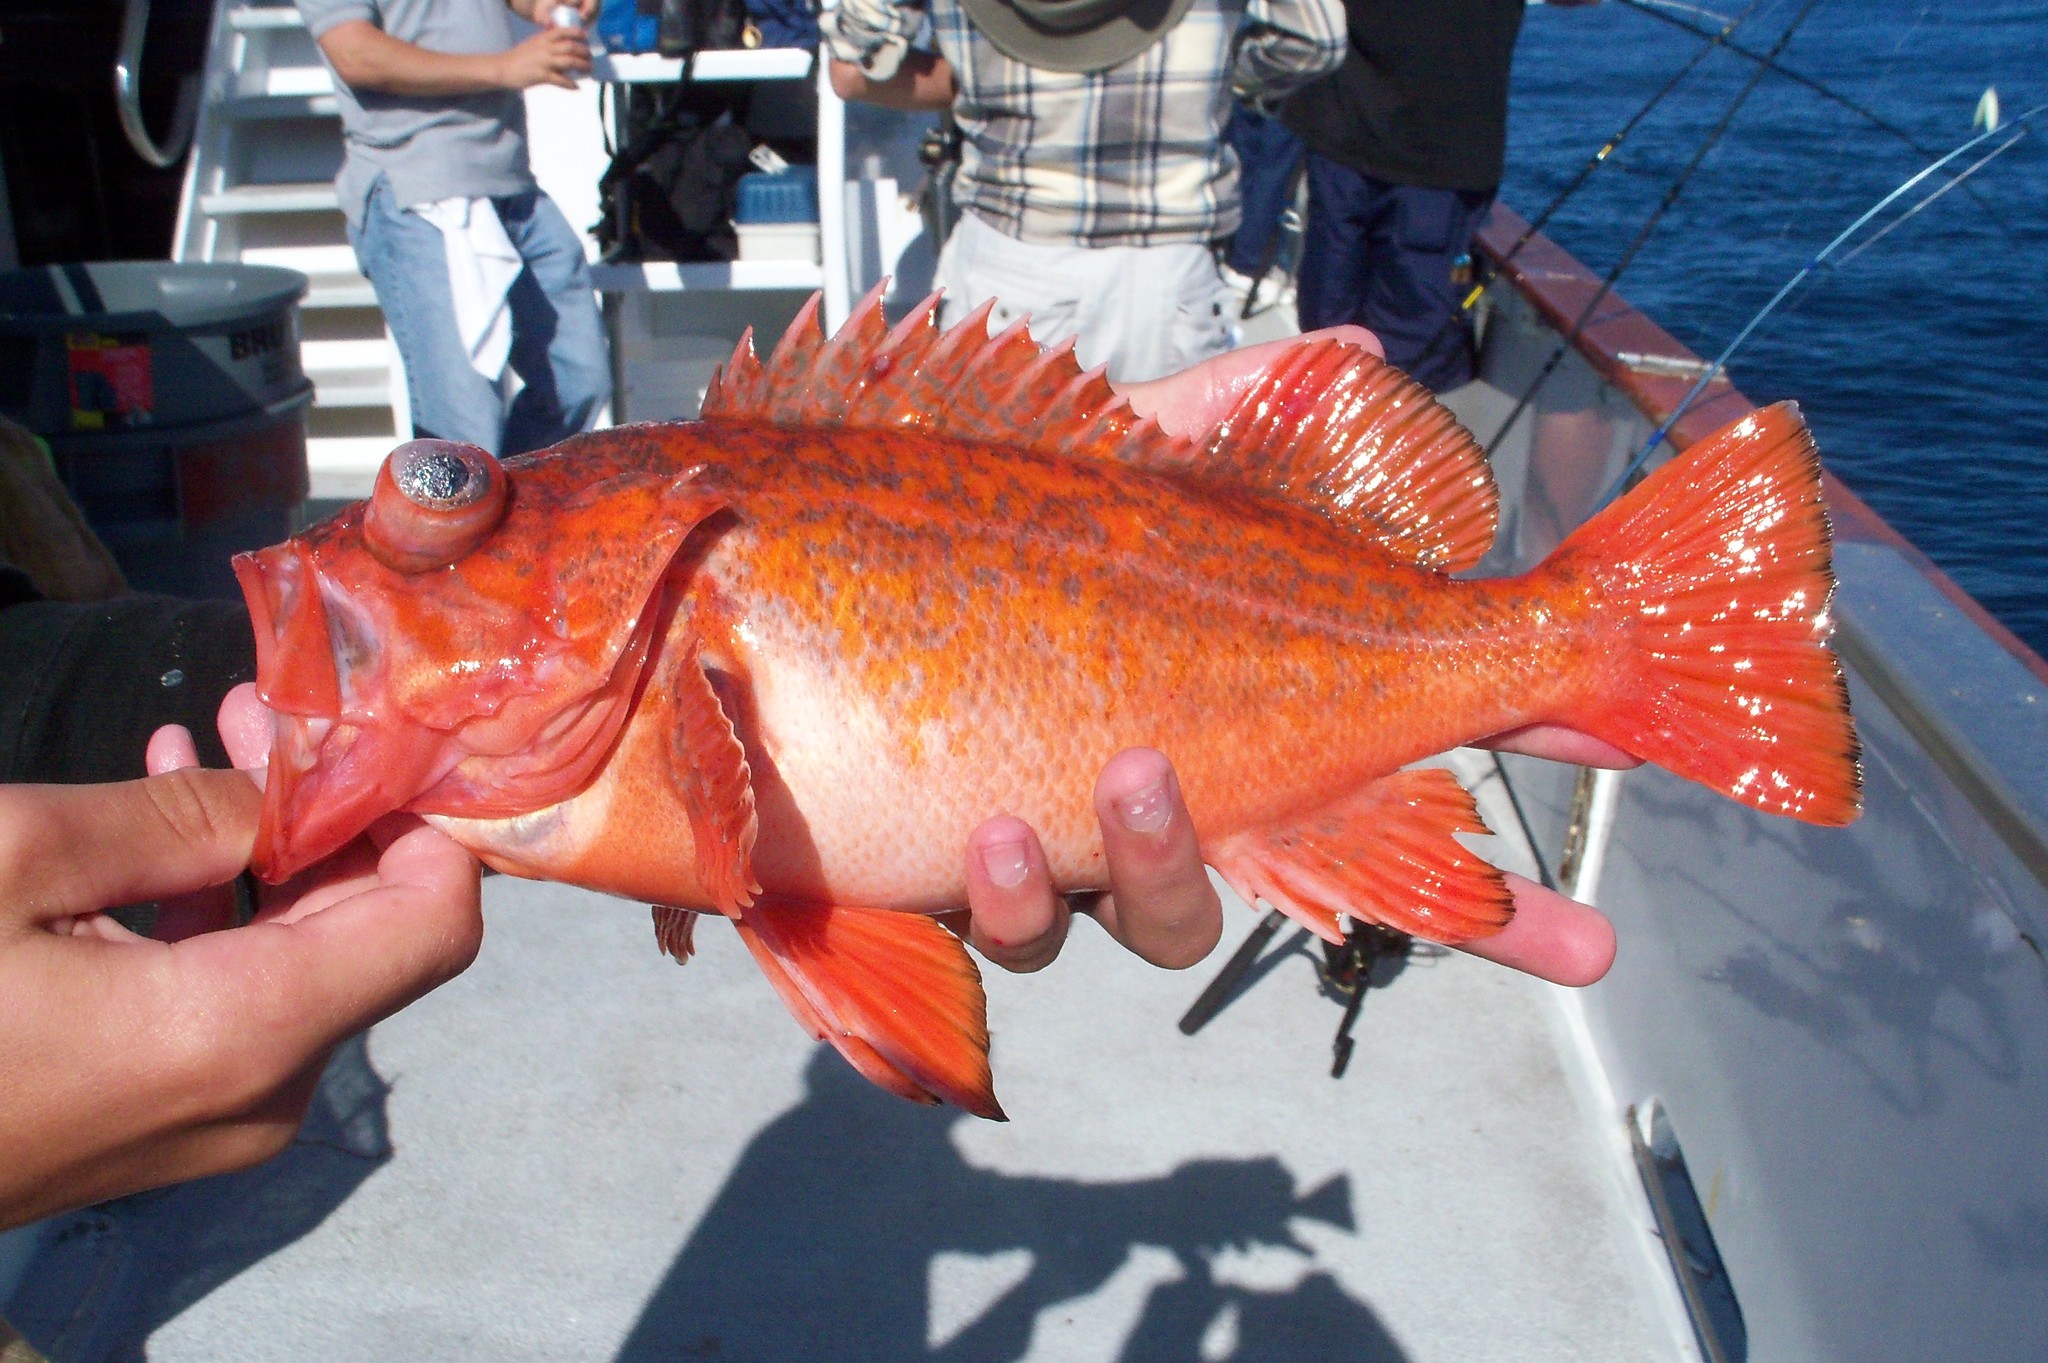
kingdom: Animalia
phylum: Chordata
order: Scorpaeniformes
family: Sebastidae
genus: Sebastes
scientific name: Sebastes miniatus
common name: Vermilion rockfish
